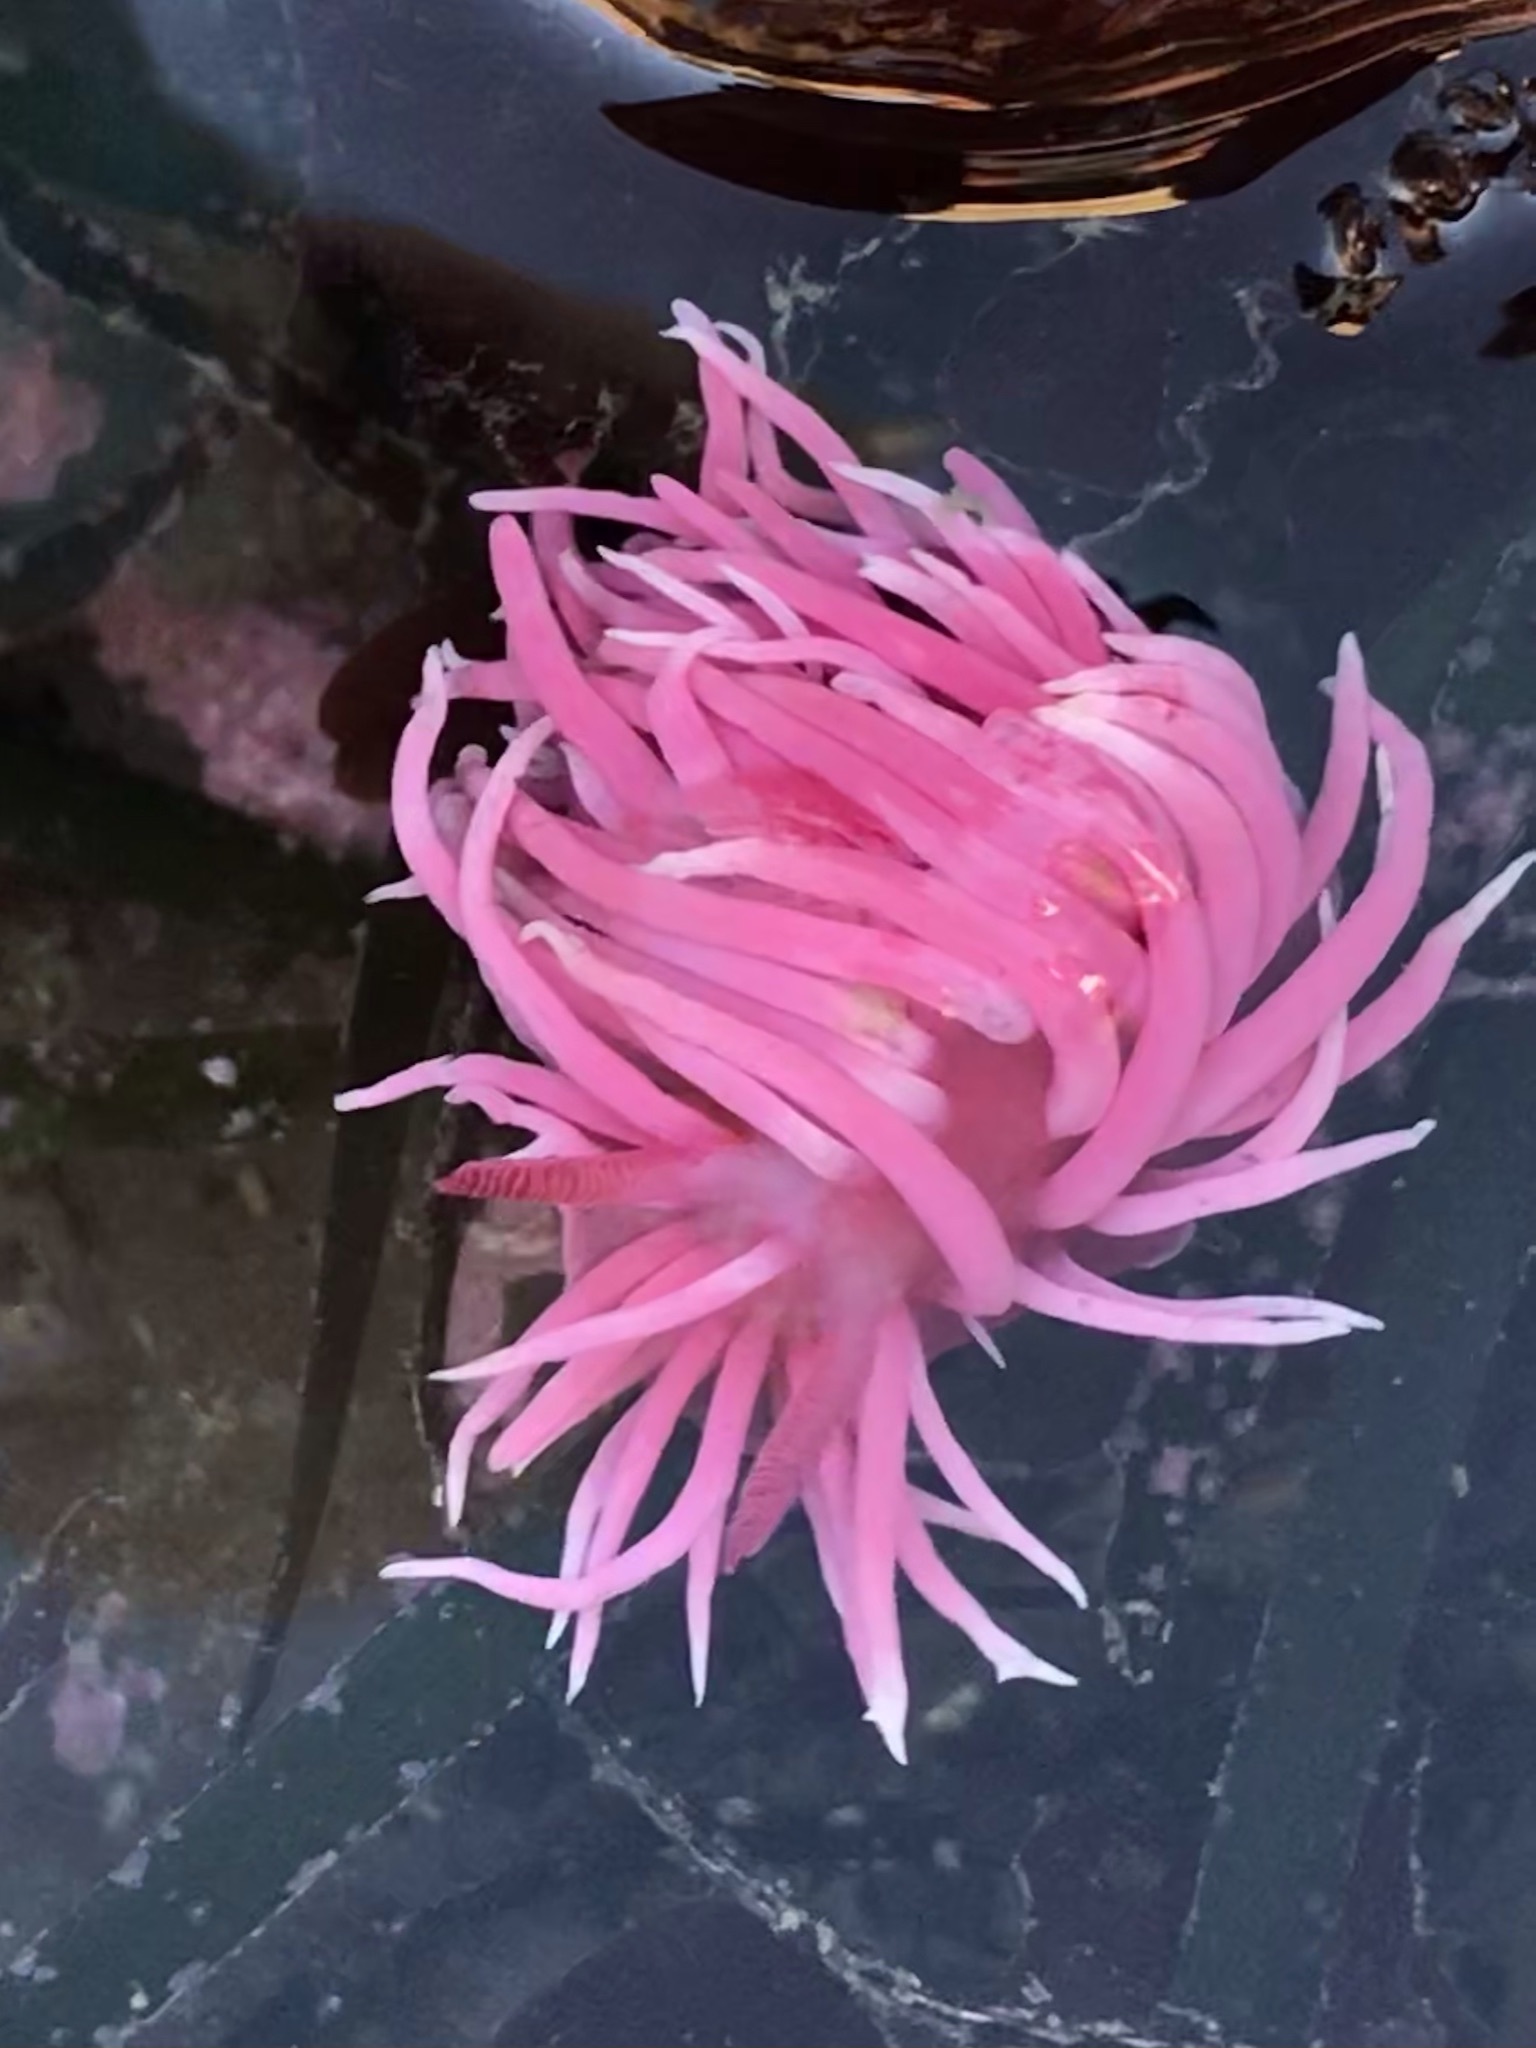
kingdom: Animalia
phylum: Mollusca
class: Gastropoda
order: Nudibranchia
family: Goniodorididae
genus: Okenia
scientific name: Okenia
